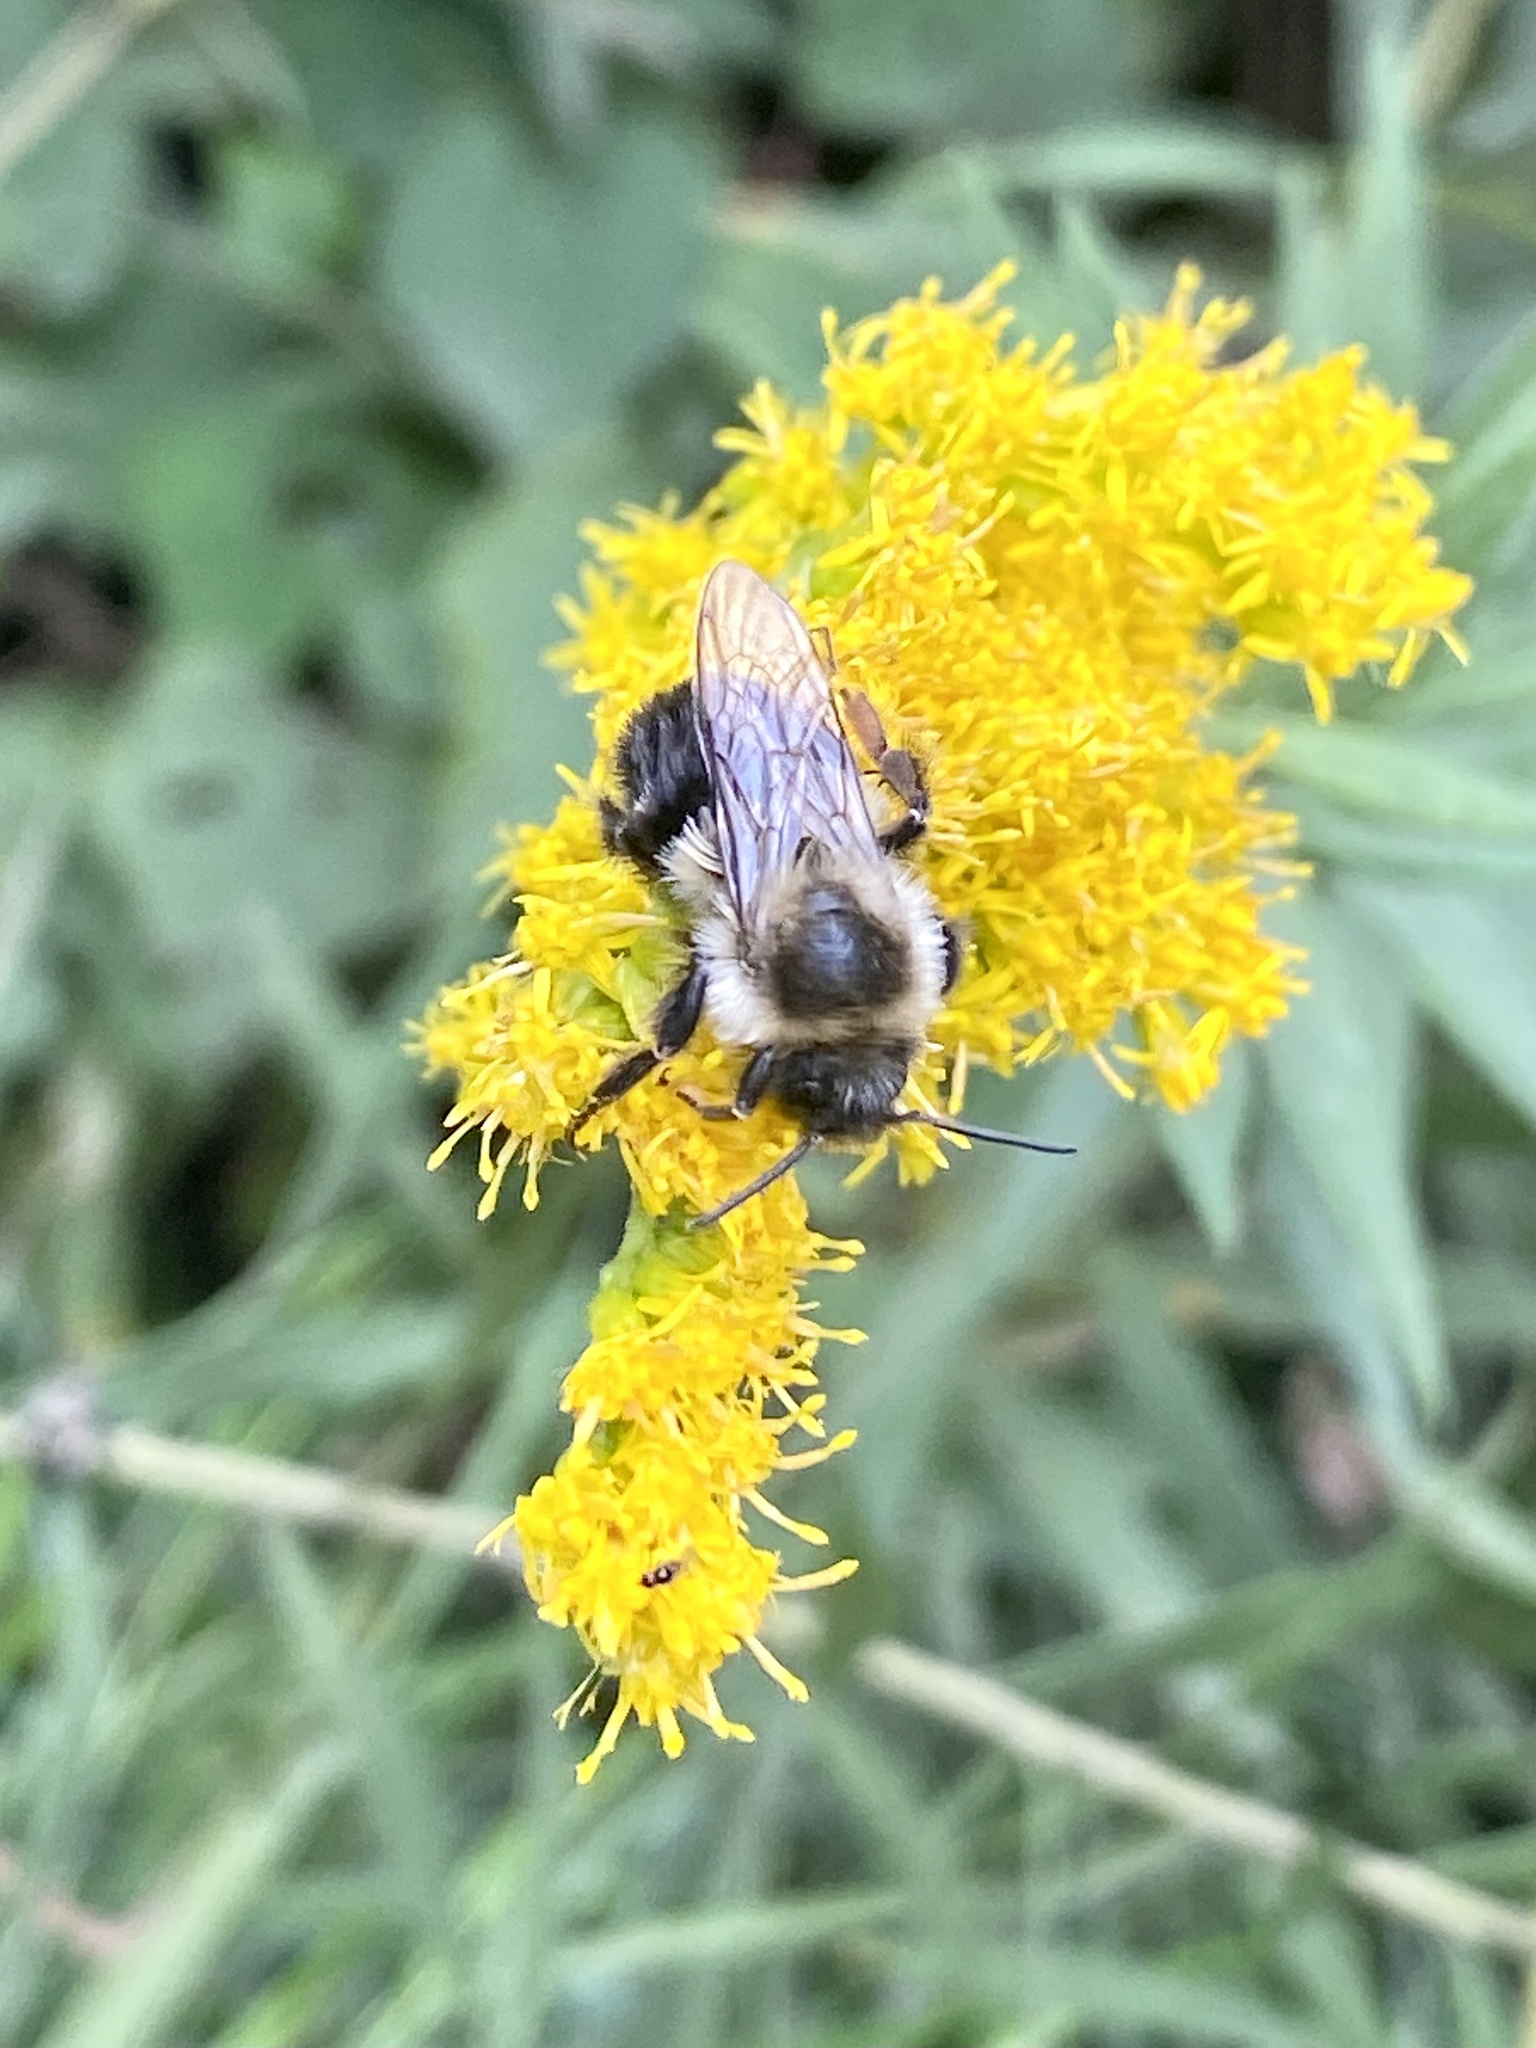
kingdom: Animalia
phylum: Arthropoda
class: Insecta
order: Hymenoptera
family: Apidae
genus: Bombus
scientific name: Bombus impatiens
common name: Common eastern bumble bee
